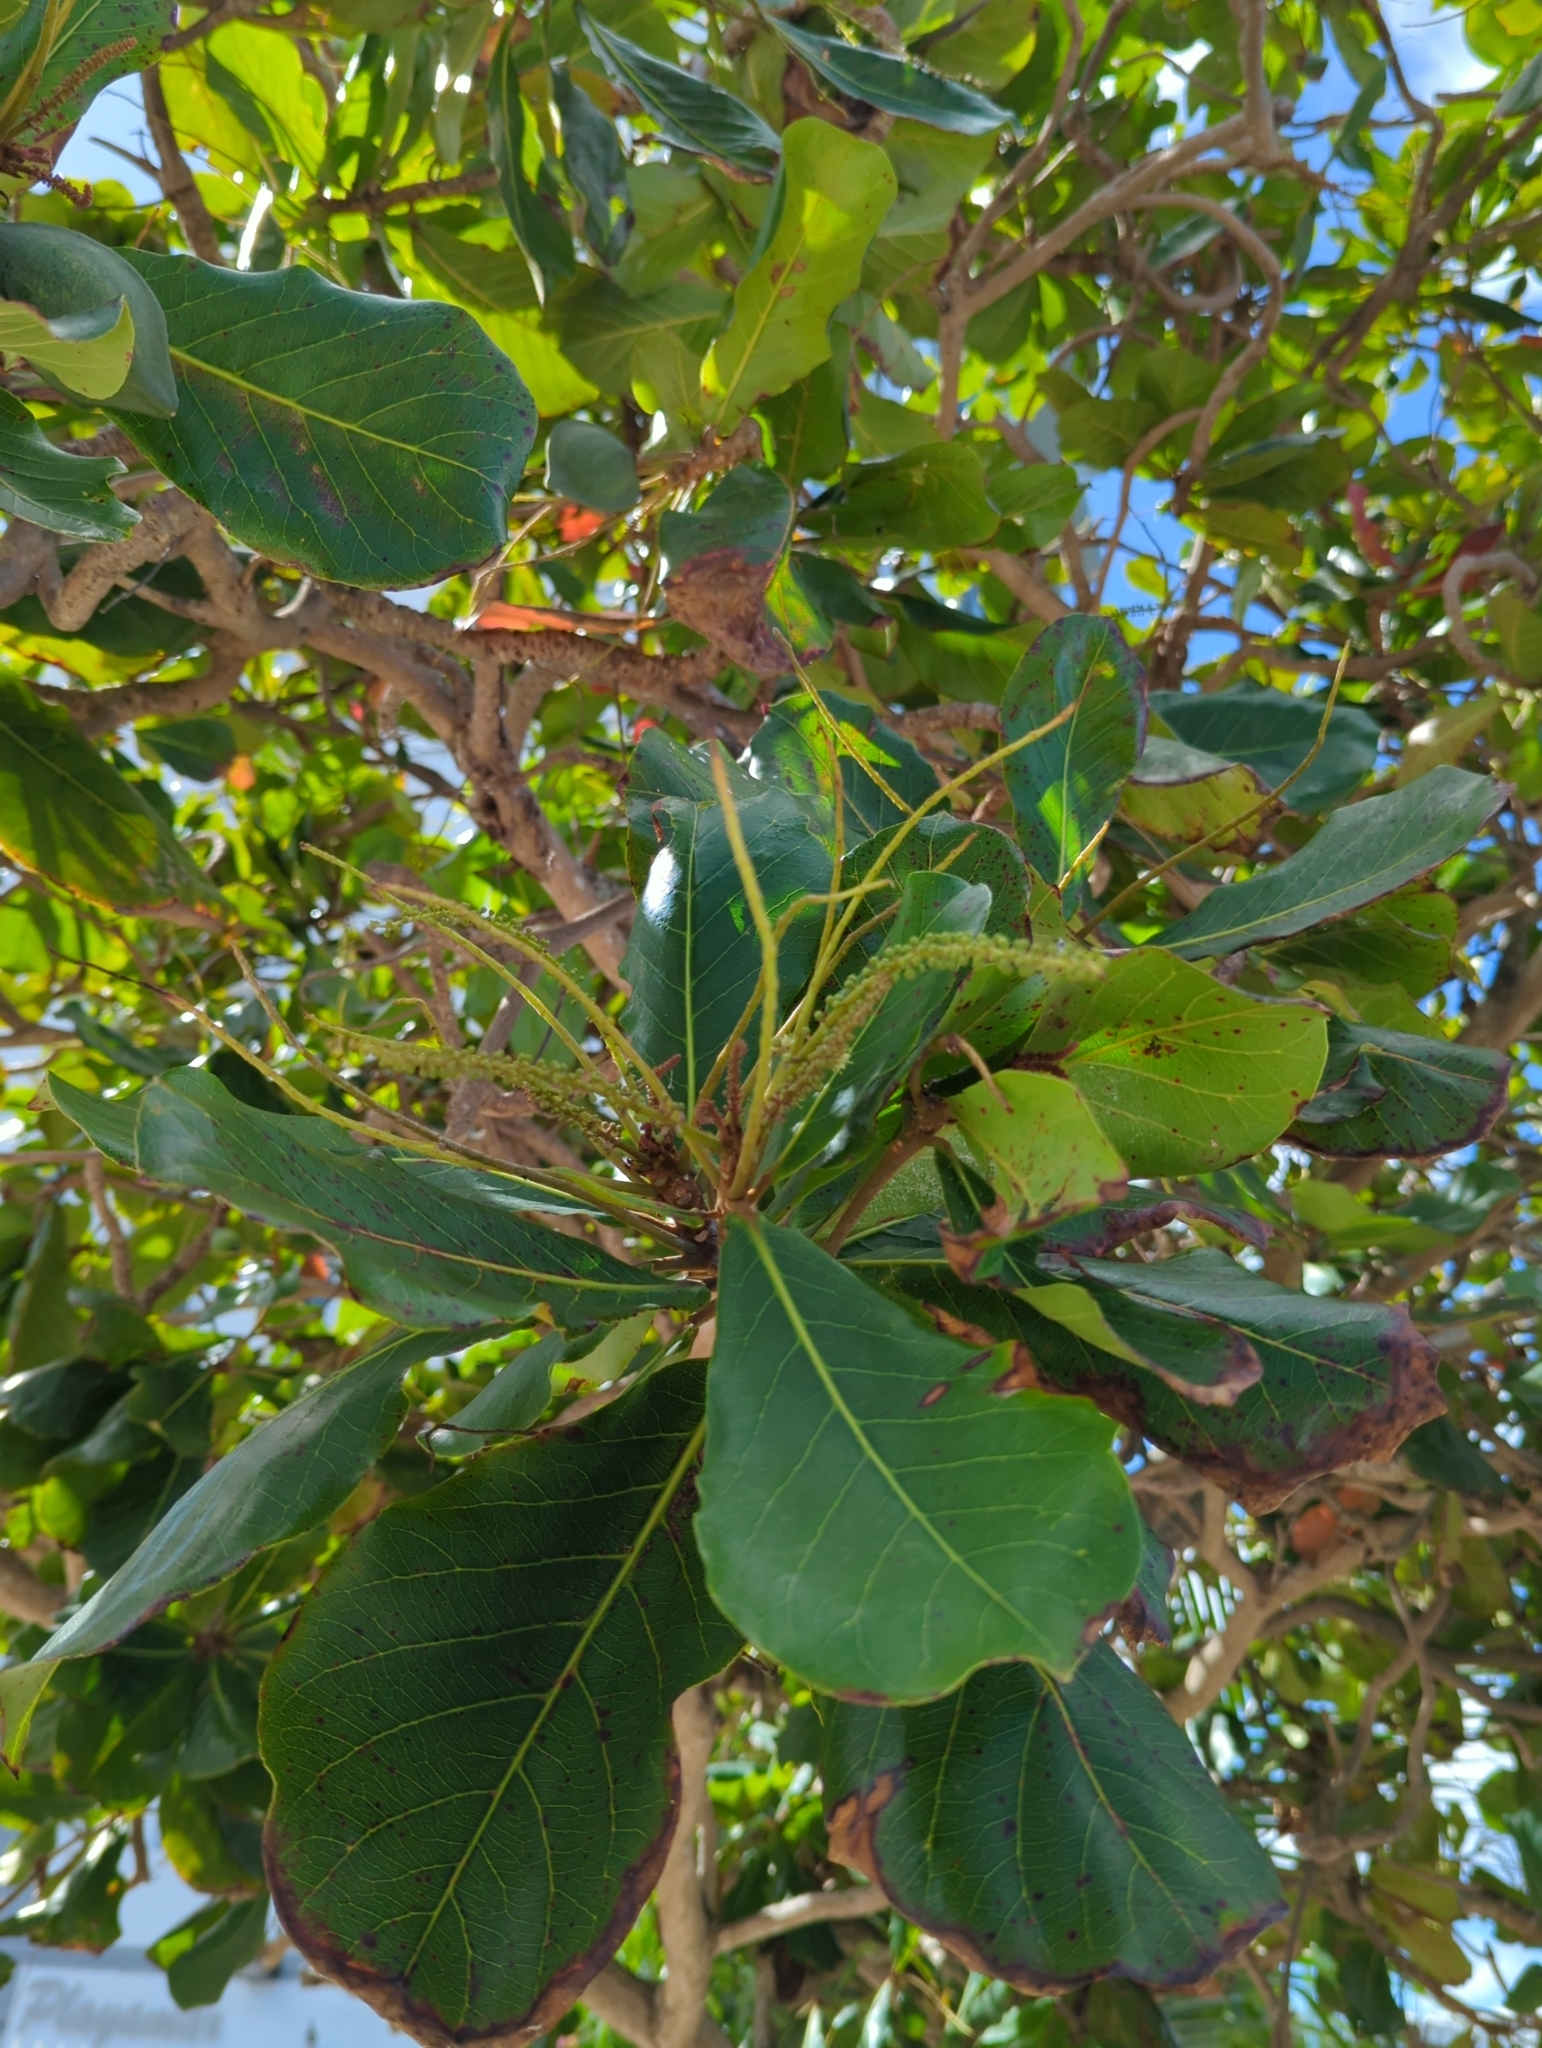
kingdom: Plantae
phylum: Tracheophyta
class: Magnoliopsida
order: Myrtales
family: Combretaceae
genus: Terminalia
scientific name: Terminalia catappa
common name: Tropical almond
